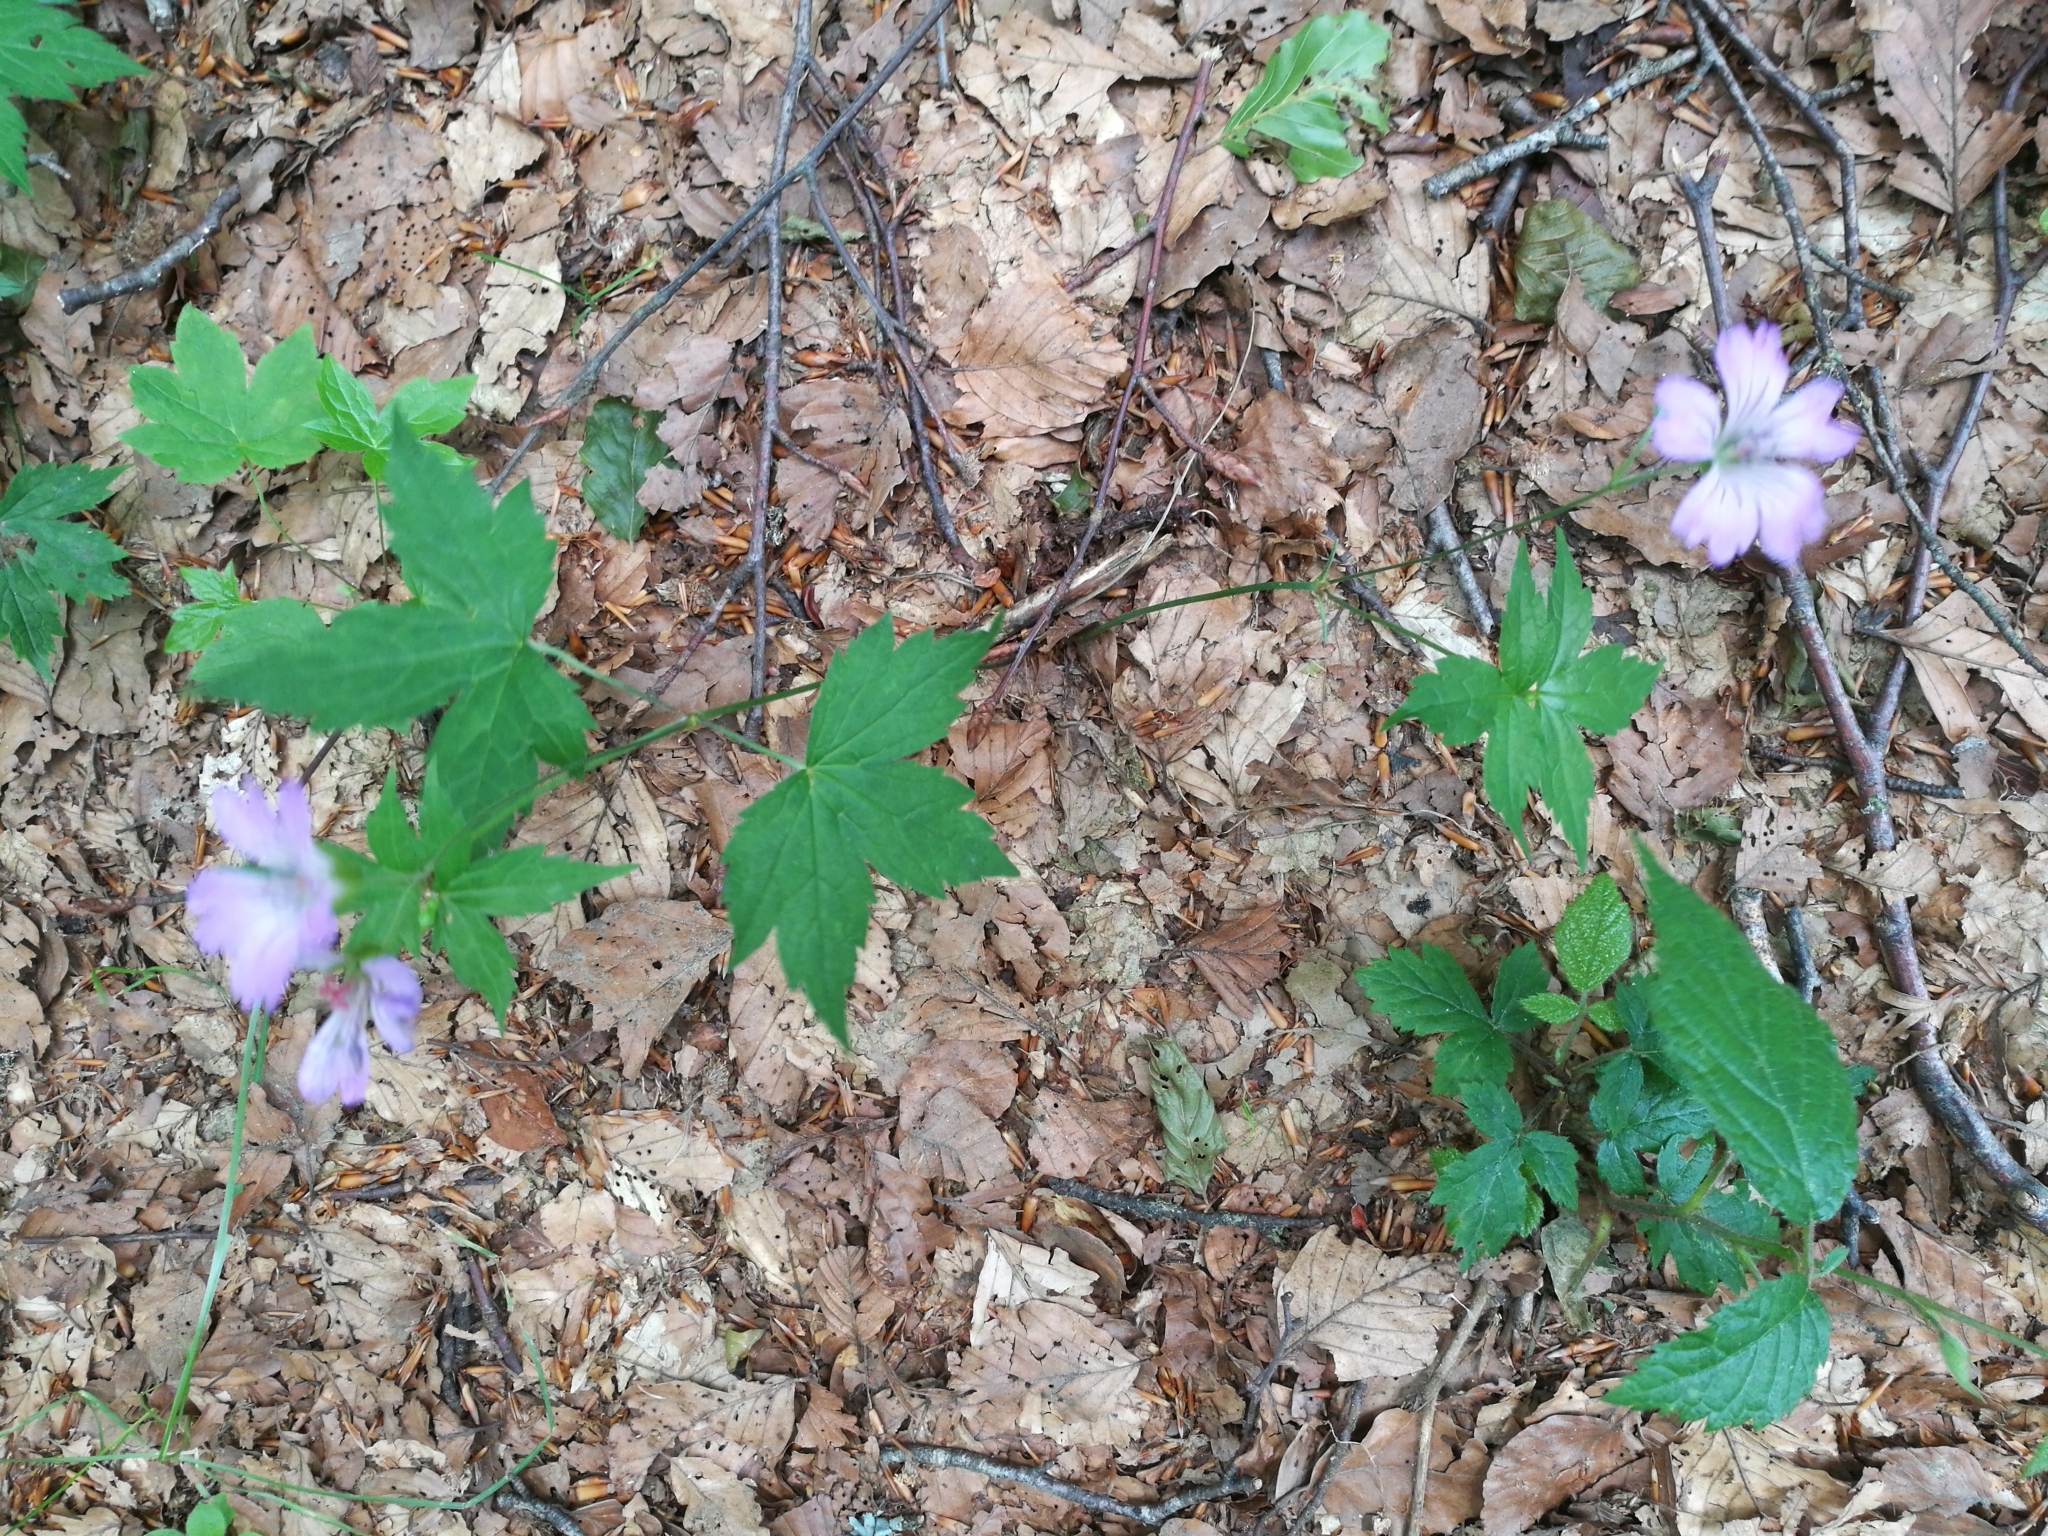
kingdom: Plantae
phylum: Tracheophyta
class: Magnoliopsida
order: Geraniales
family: Geraniaceae
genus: Geranium
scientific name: Geranium nodosum
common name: Knotted crane's-bill
